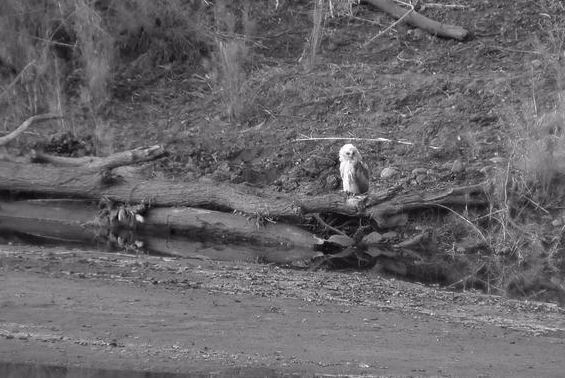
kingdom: Animalia
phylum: Chordata
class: Aves
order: Strigiformes
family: Strigidae
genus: Scotopelia
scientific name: Scotopelia peli
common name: Pel's fishing owl
